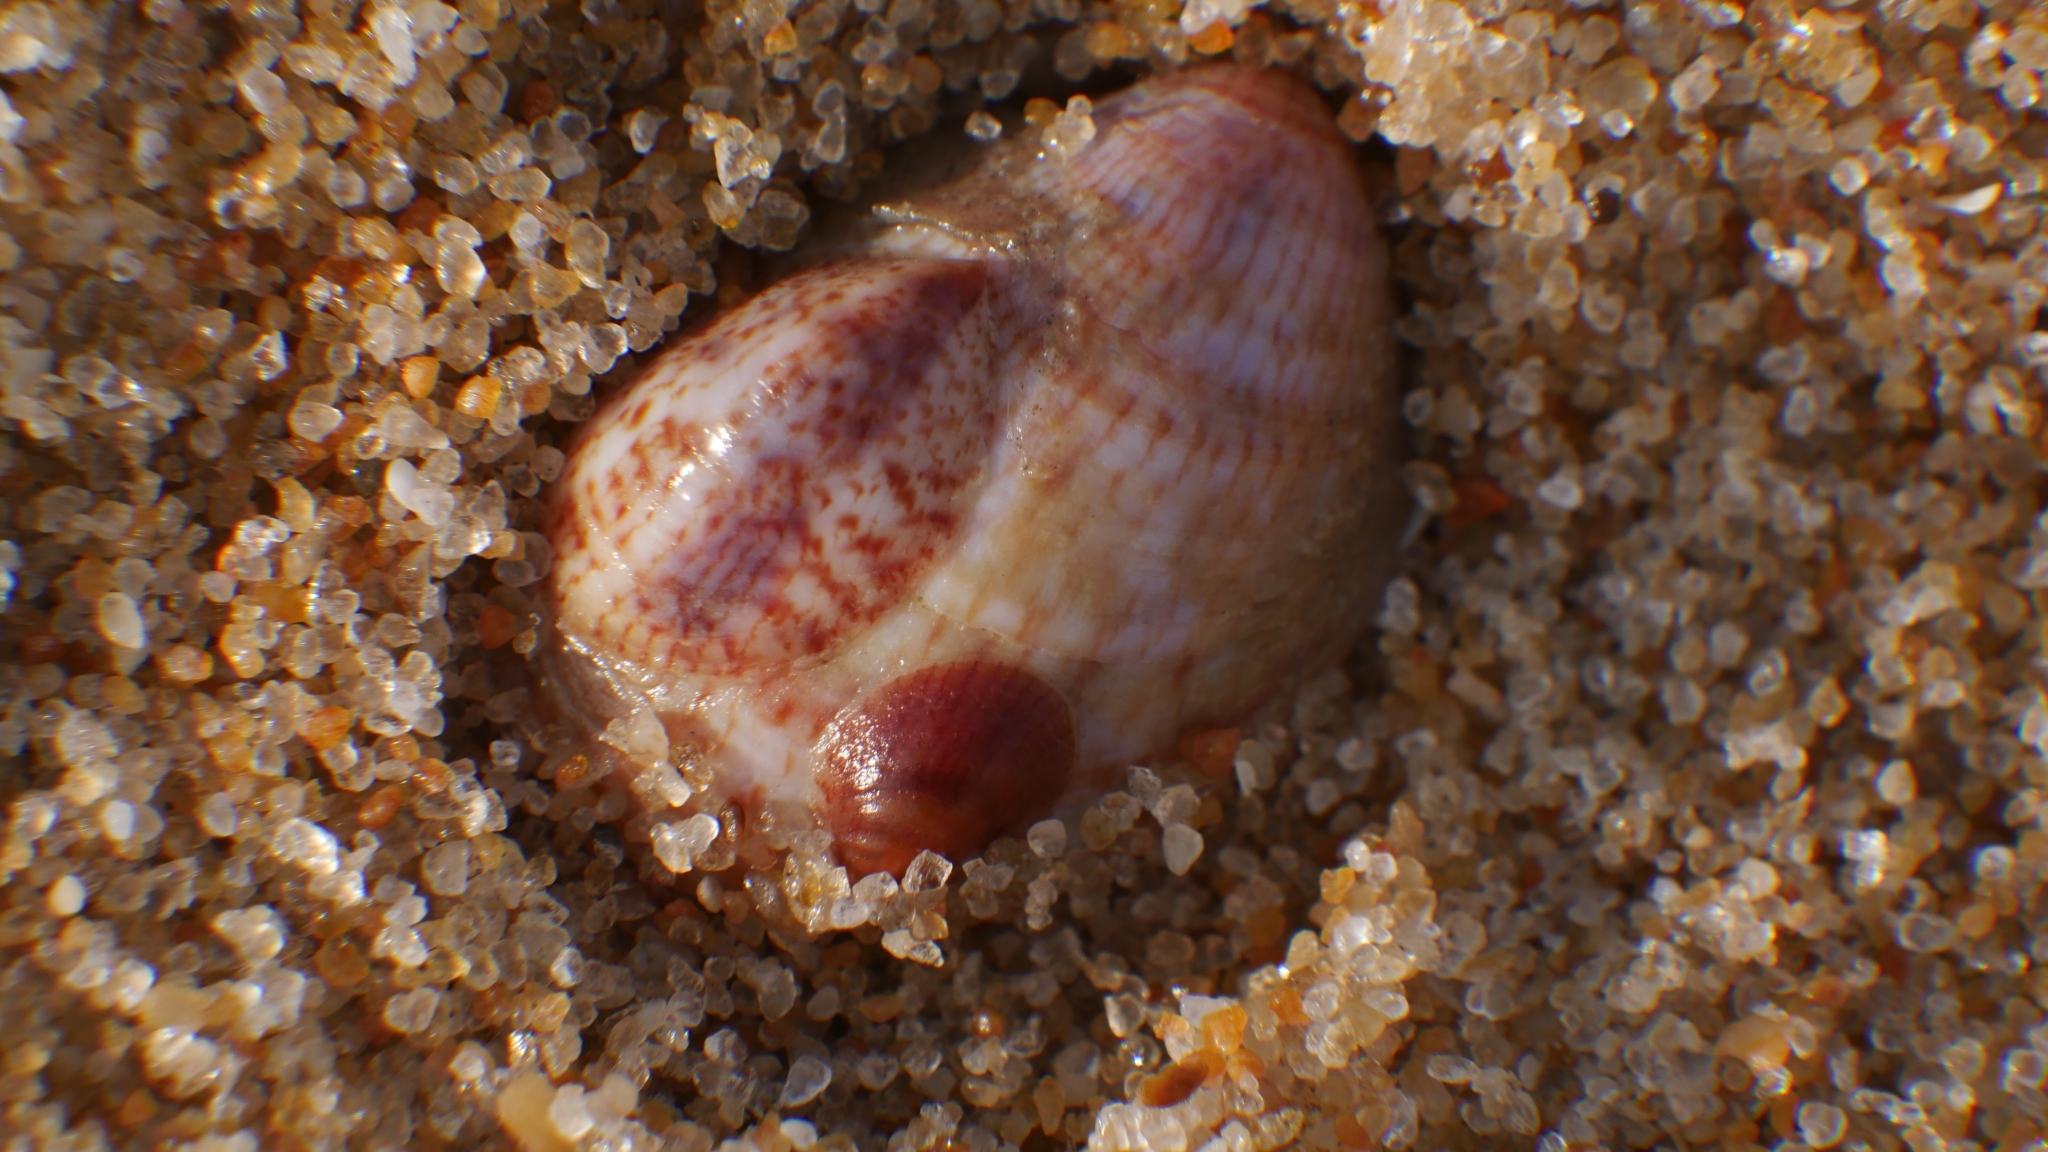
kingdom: Animalia
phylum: Mollusca
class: Gastropoda
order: Littorinimorpha
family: Calyptraeidae
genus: Crepidula
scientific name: Crepidula fornicata
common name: Slipper limpet
